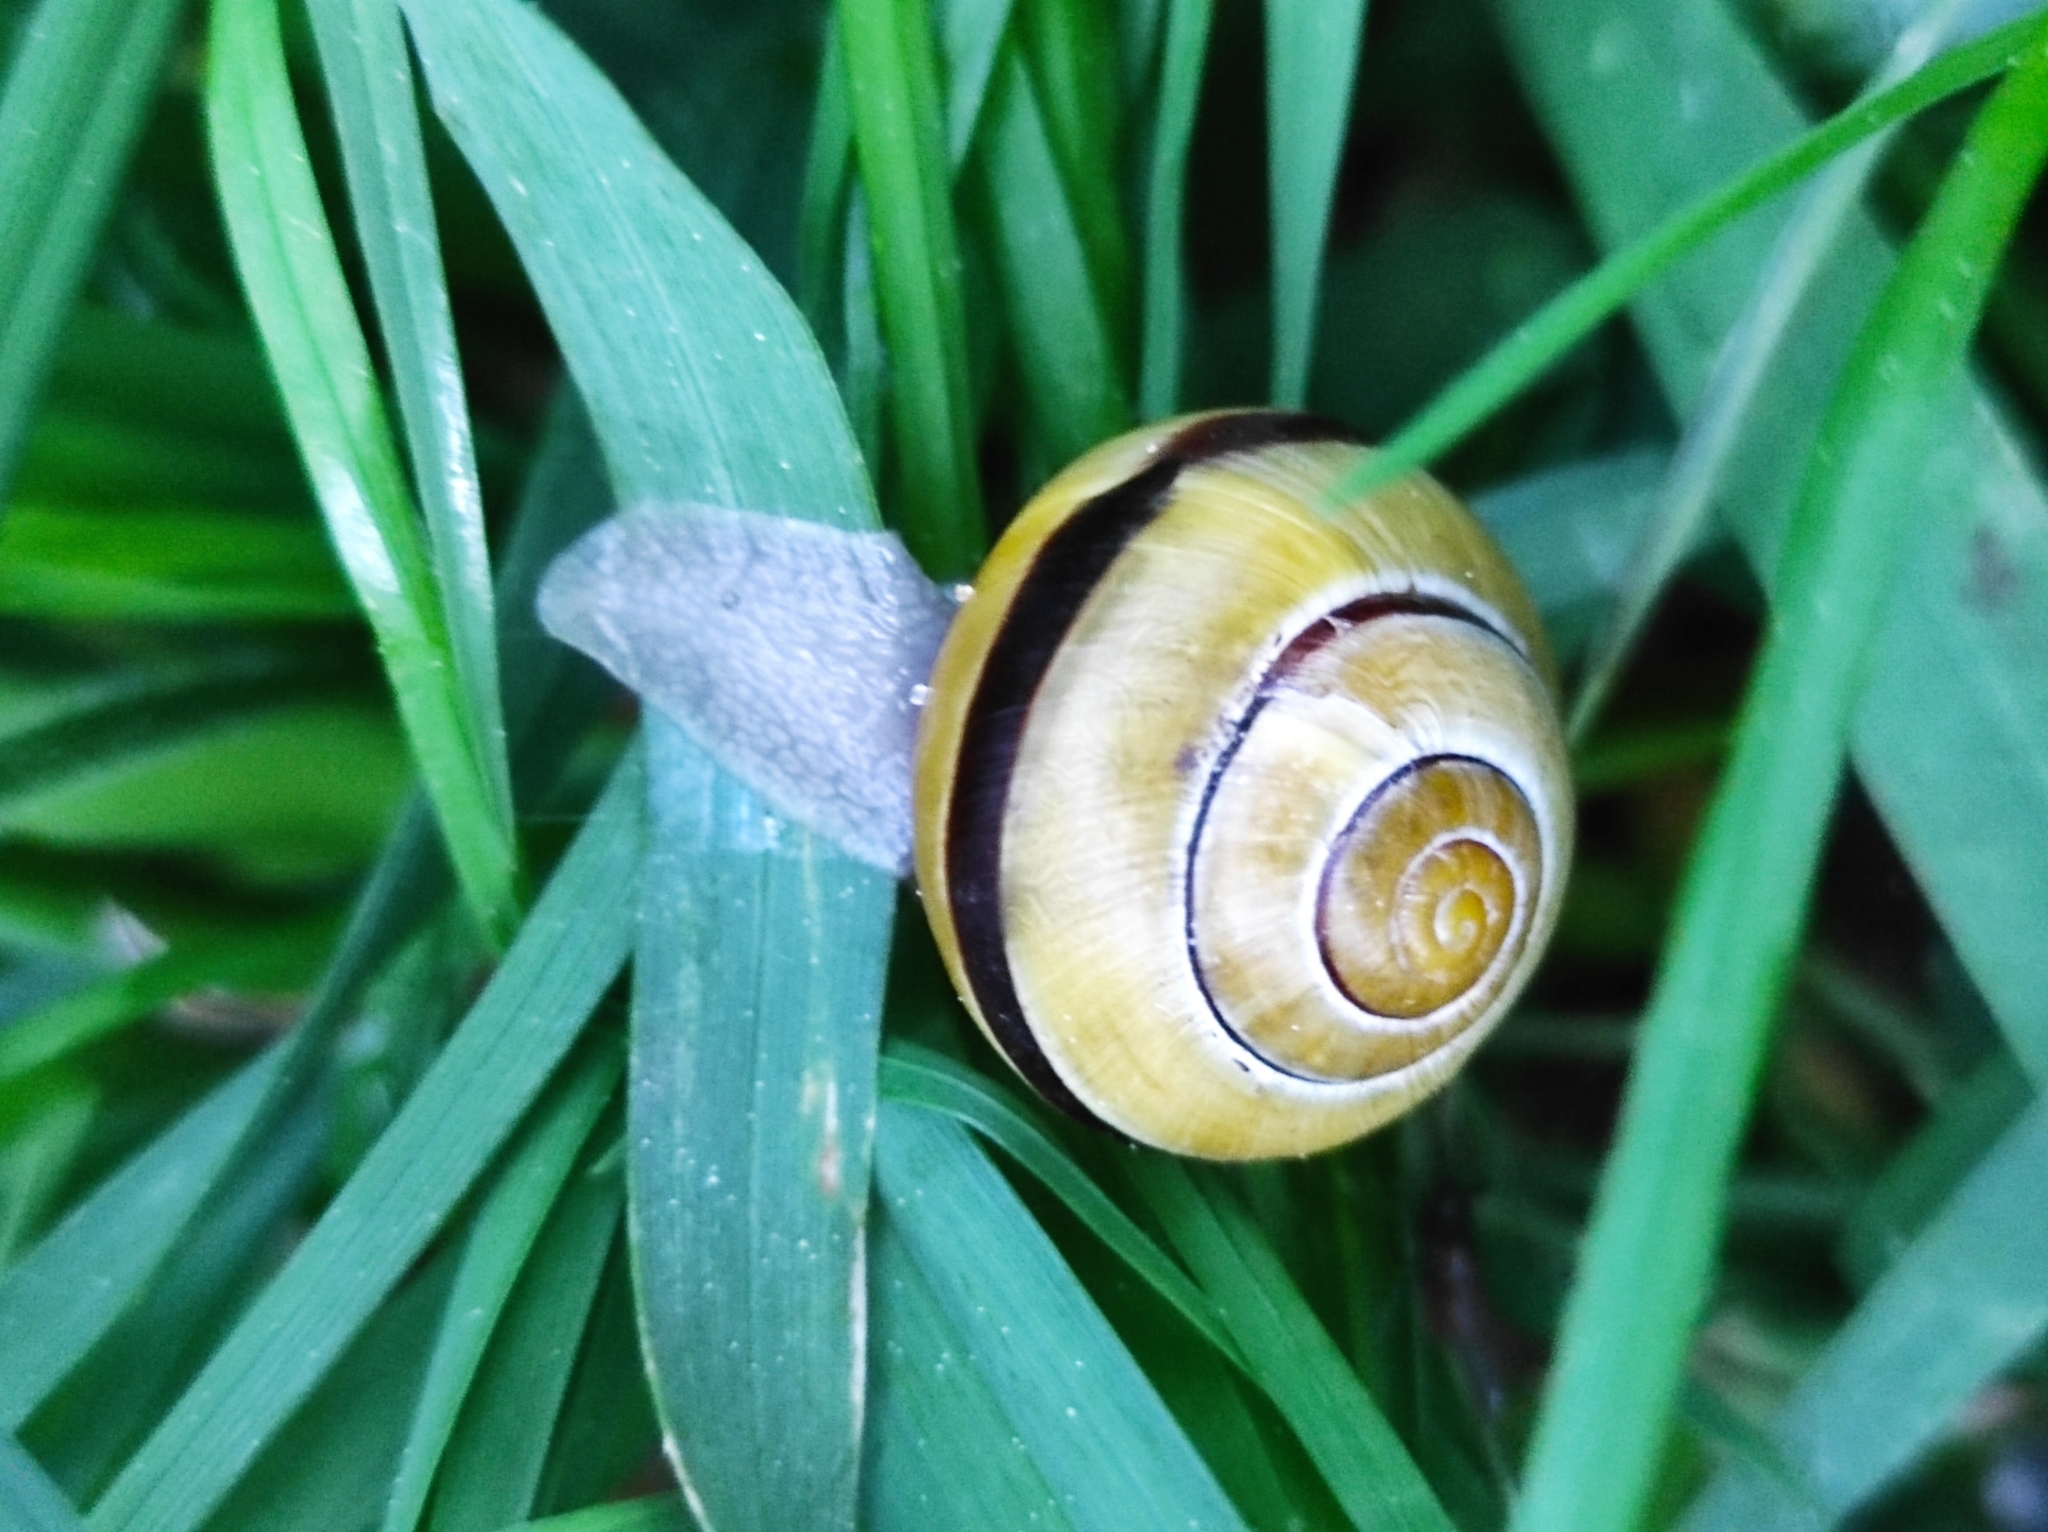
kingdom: Animalia
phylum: Mollusca
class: Gastropoda
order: Stylommatophora
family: Helicidae
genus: Cepaea
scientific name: Cepaea
